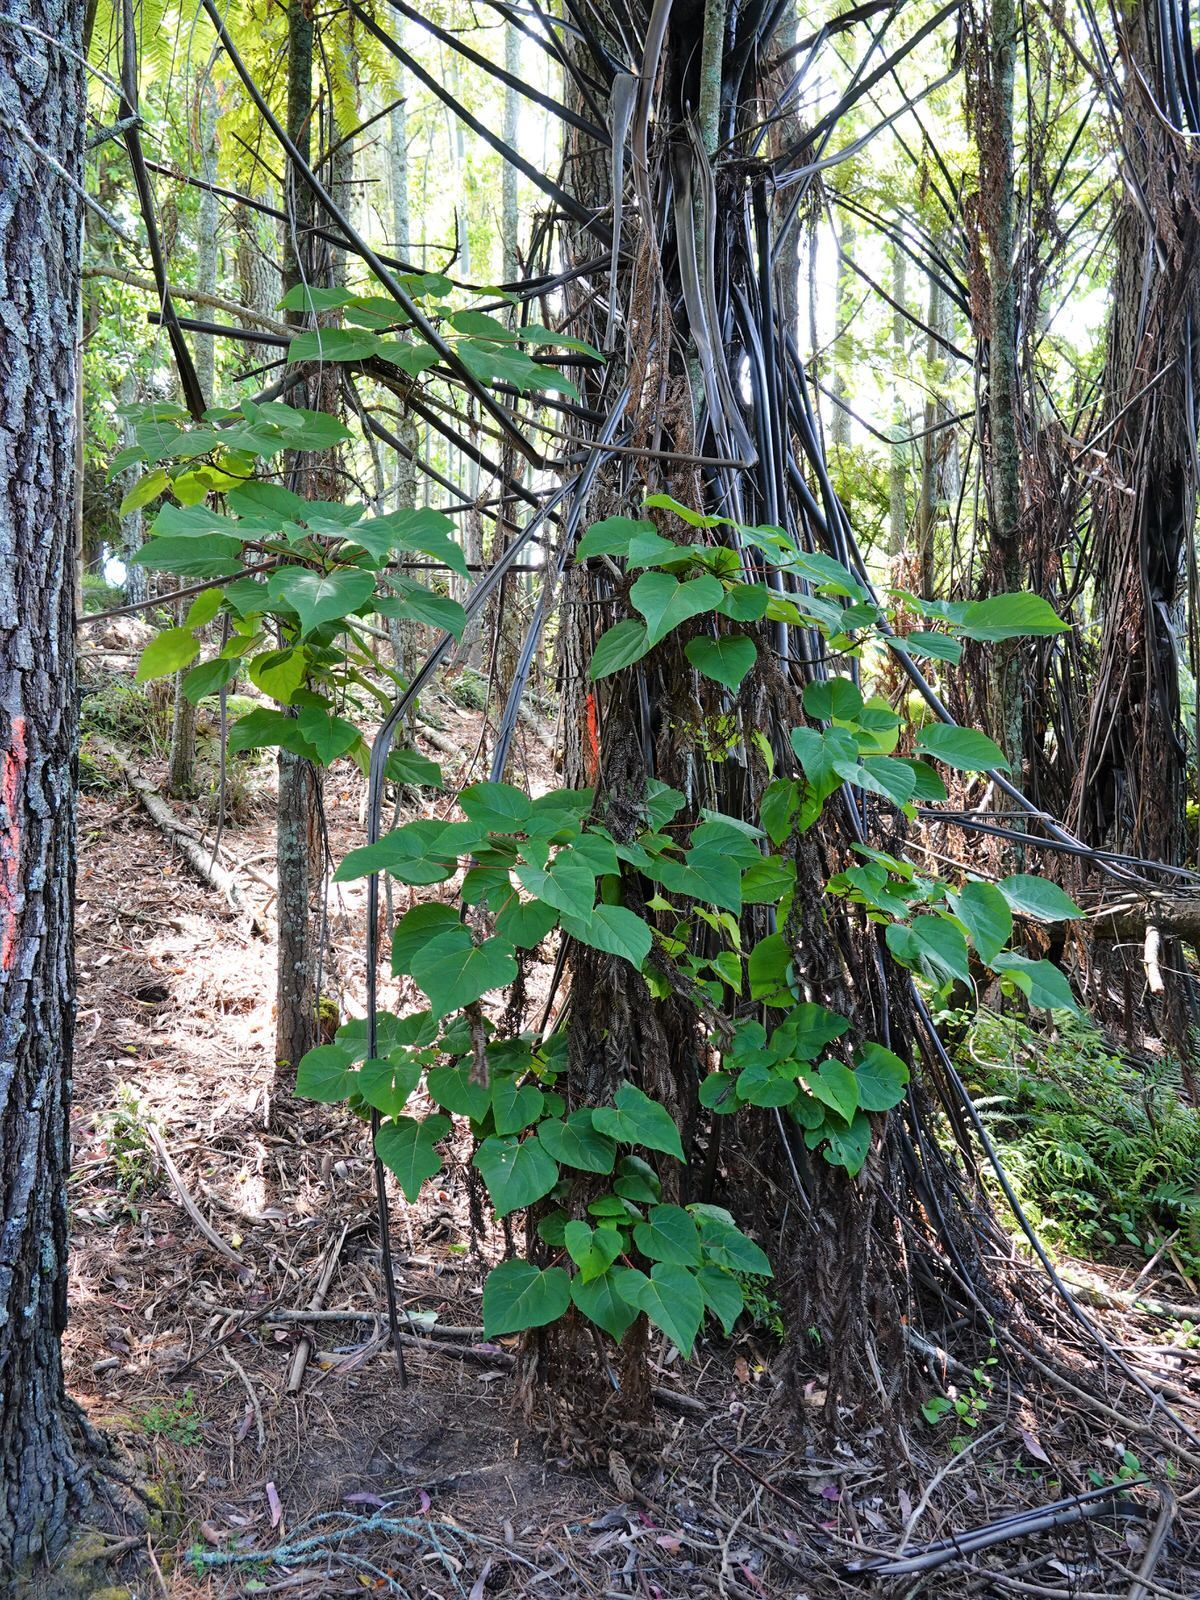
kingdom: Plantae
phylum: Tracheophyta
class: Magnoliopsida
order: Malpighiales
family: Euphorbiaceae
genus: Homalanthus
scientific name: Homalanthus populifolius
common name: Queensland poplar
